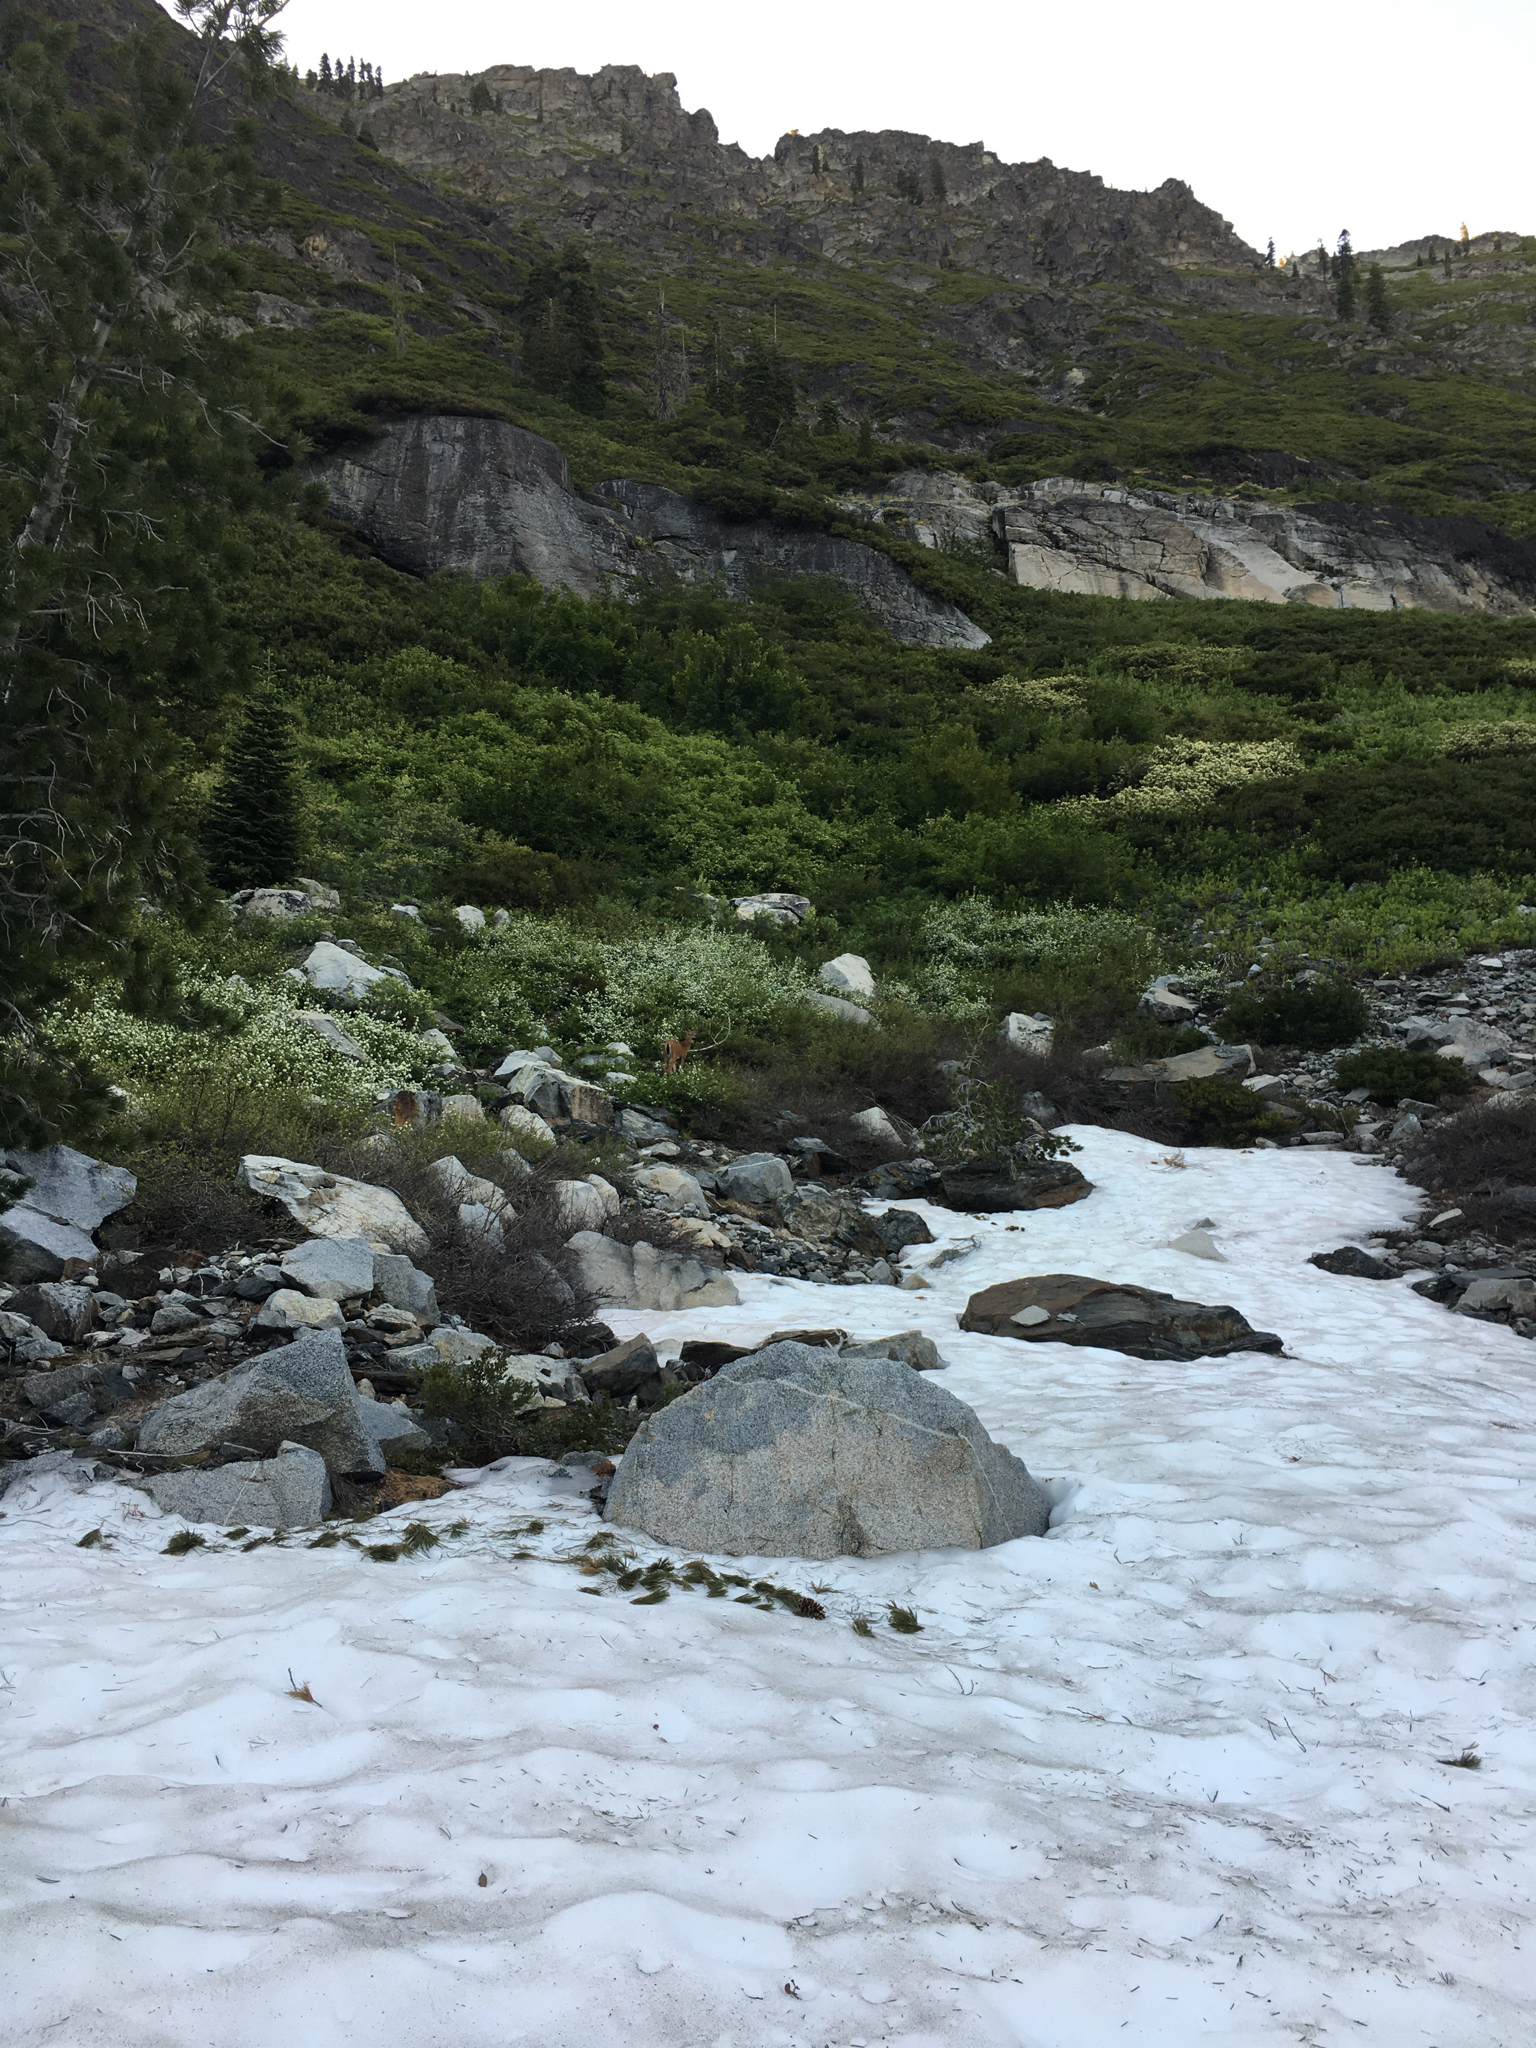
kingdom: Animalia
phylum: Chordata
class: Mammalia
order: Artiodactyla
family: Cervidae
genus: Odocoileus
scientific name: Odocoileus hemionus
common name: Mule deer
